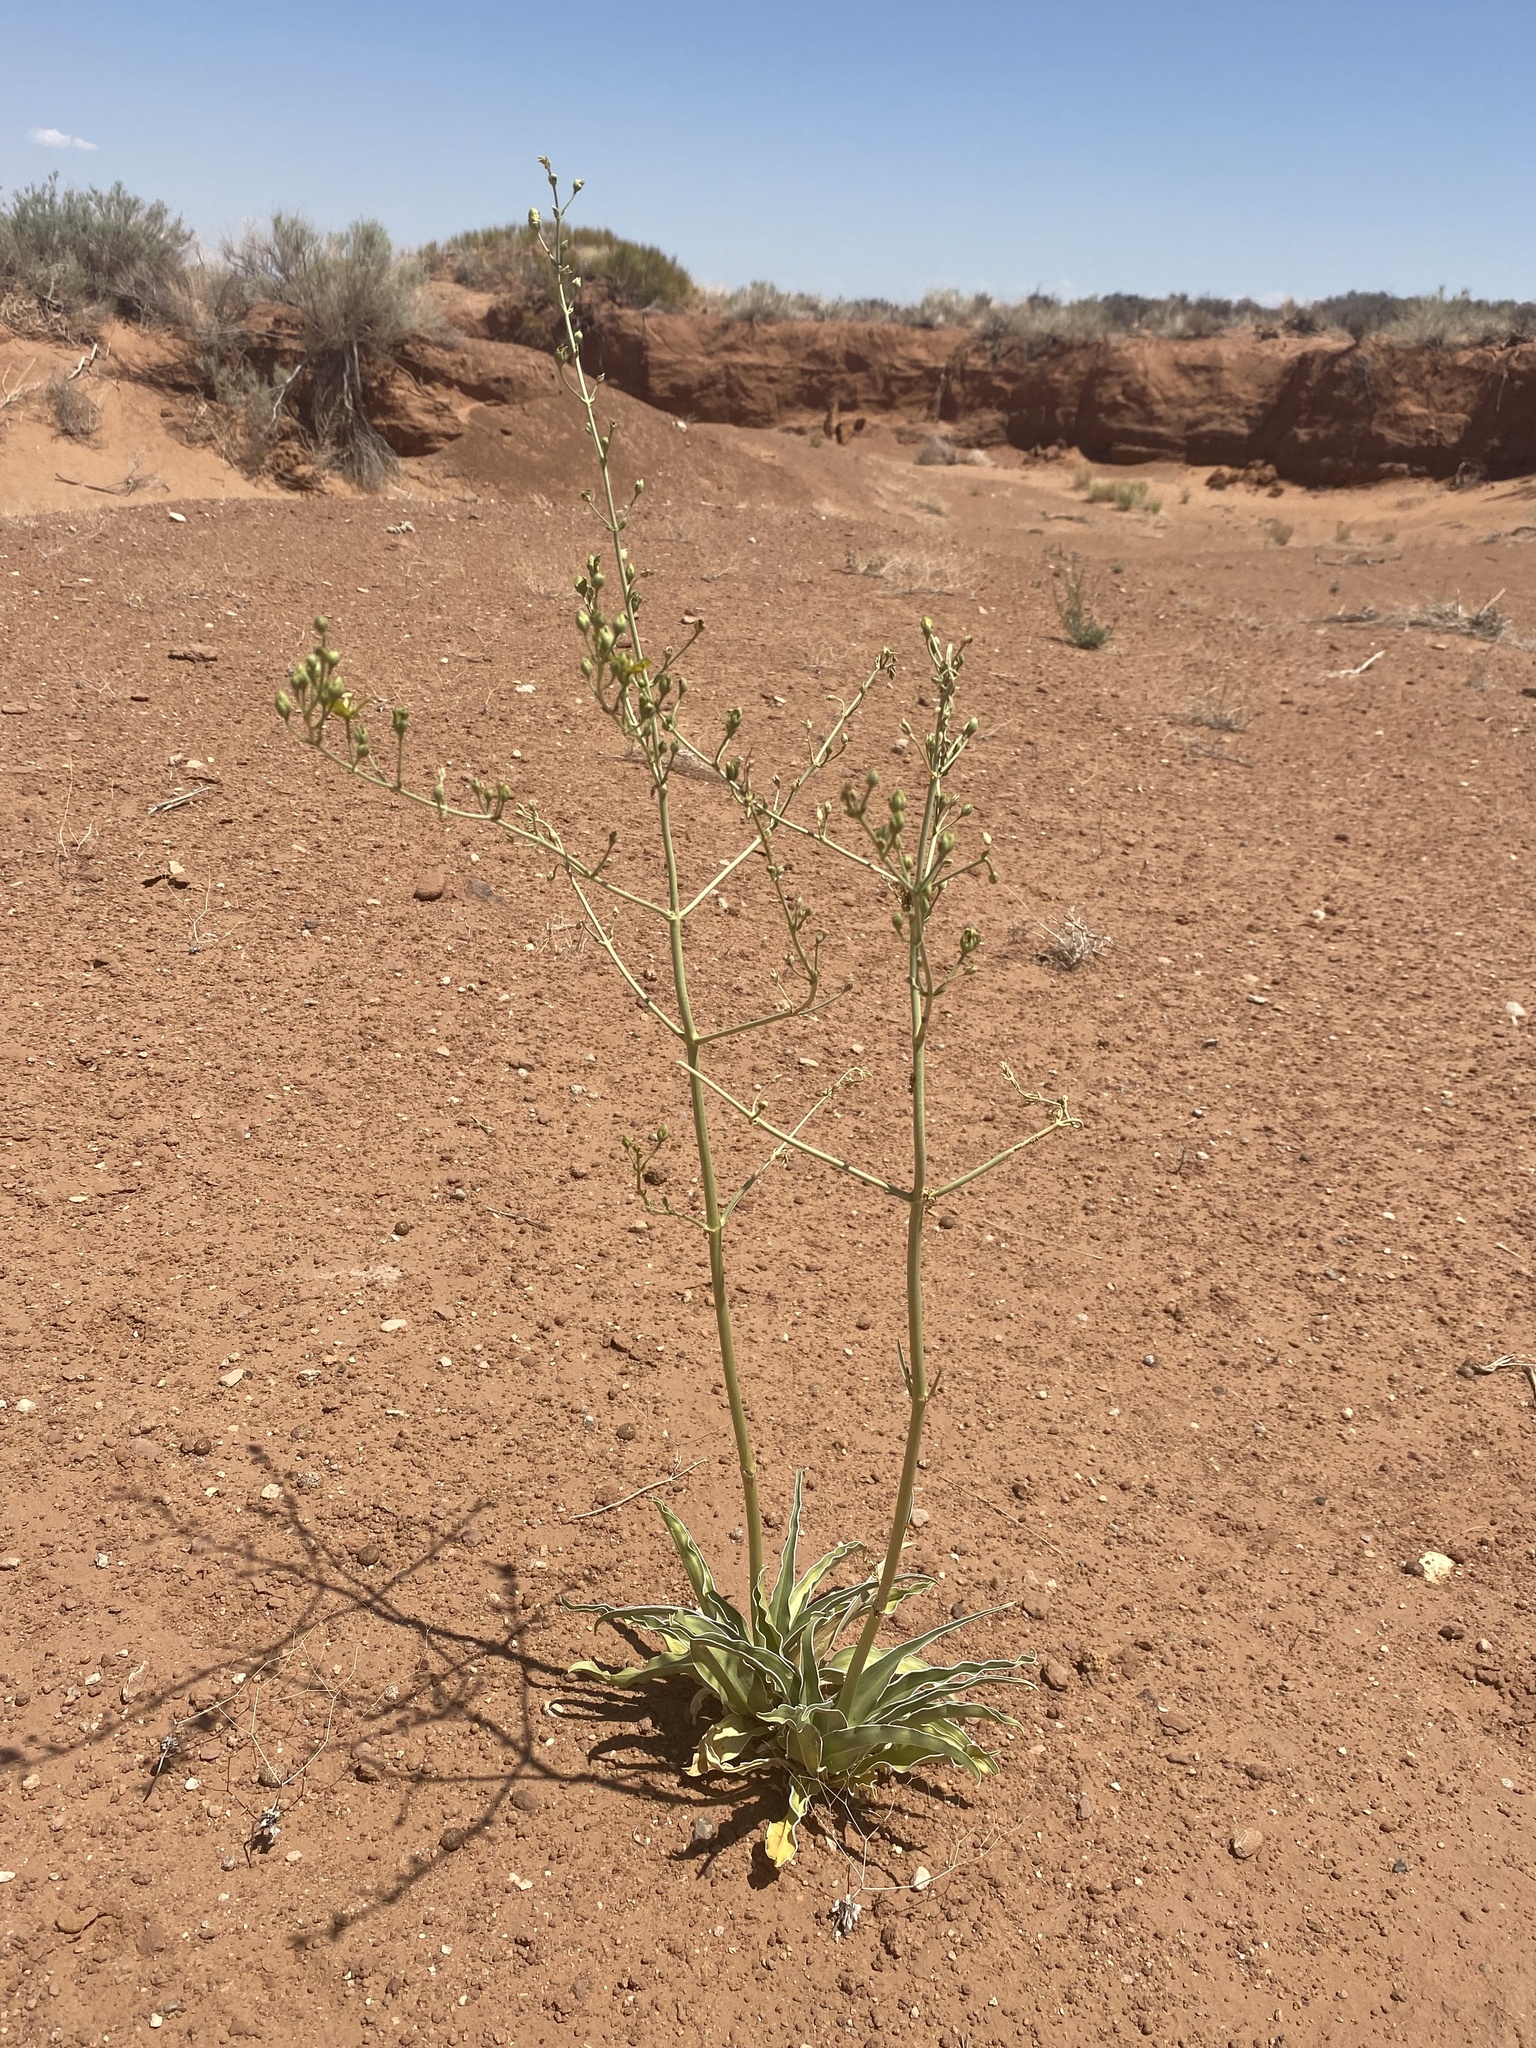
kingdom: Plantae
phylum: Tracheophyta
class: Magnoliopsida
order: Gentianales
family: Gentianaceae
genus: Frasera
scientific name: Frasera paniculata
